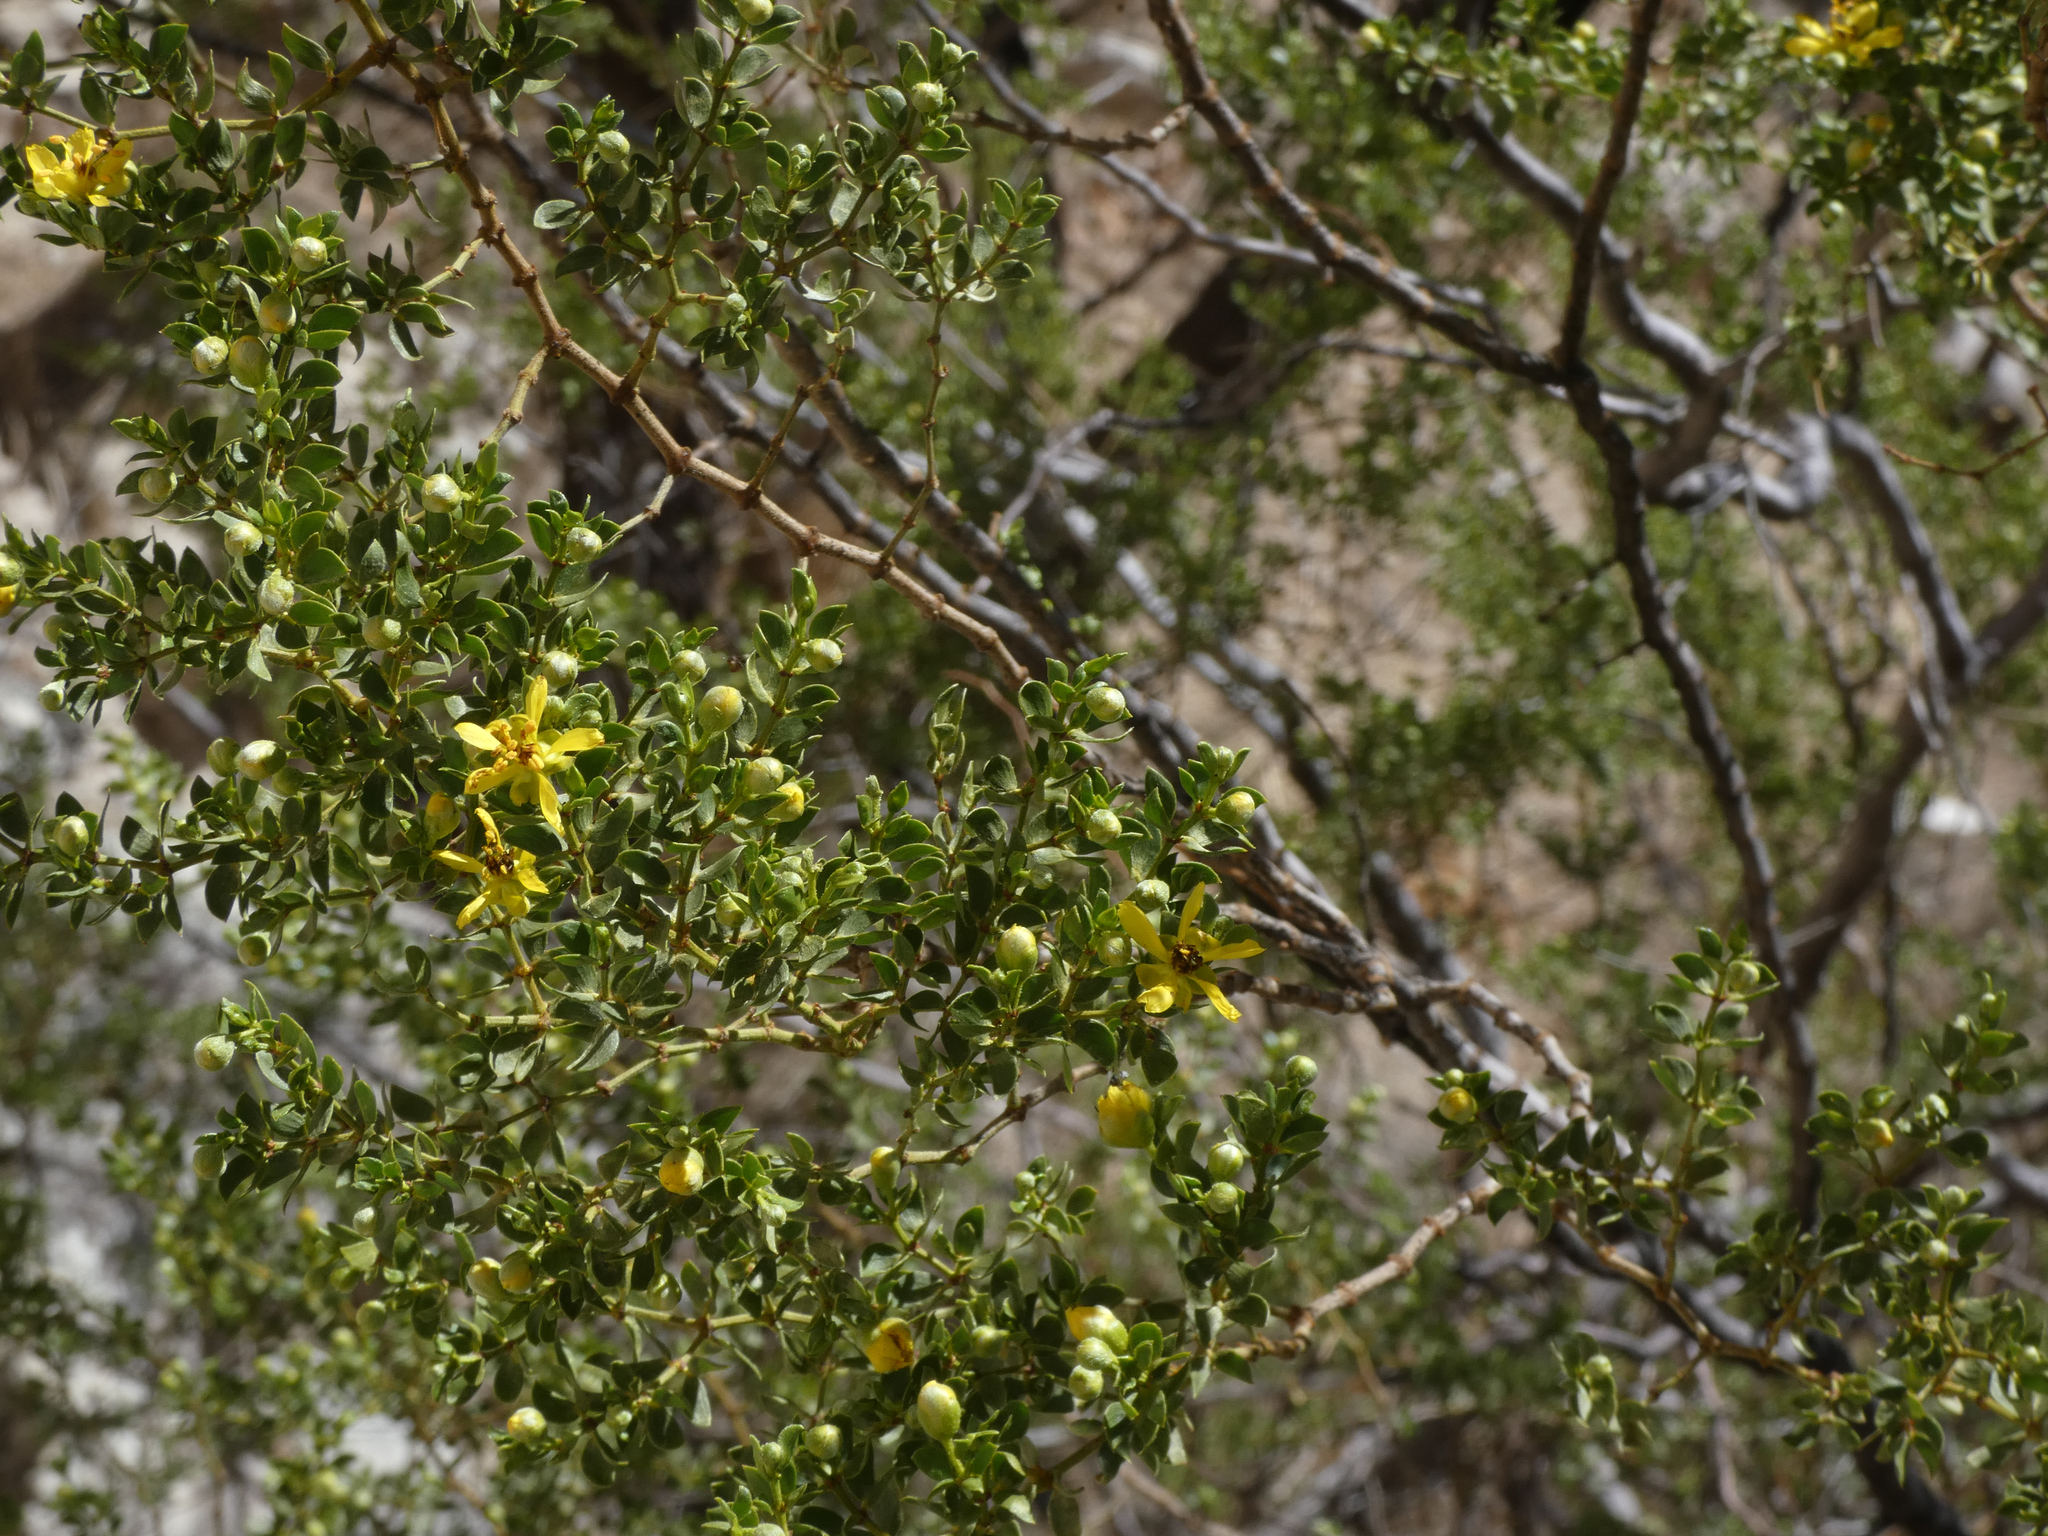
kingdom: Plantae
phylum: Tracheophyta
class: Magnoliopsida
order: Zygophyllales
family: Zygophyllaceae
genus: Larrea
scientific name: Larrea tridentata
